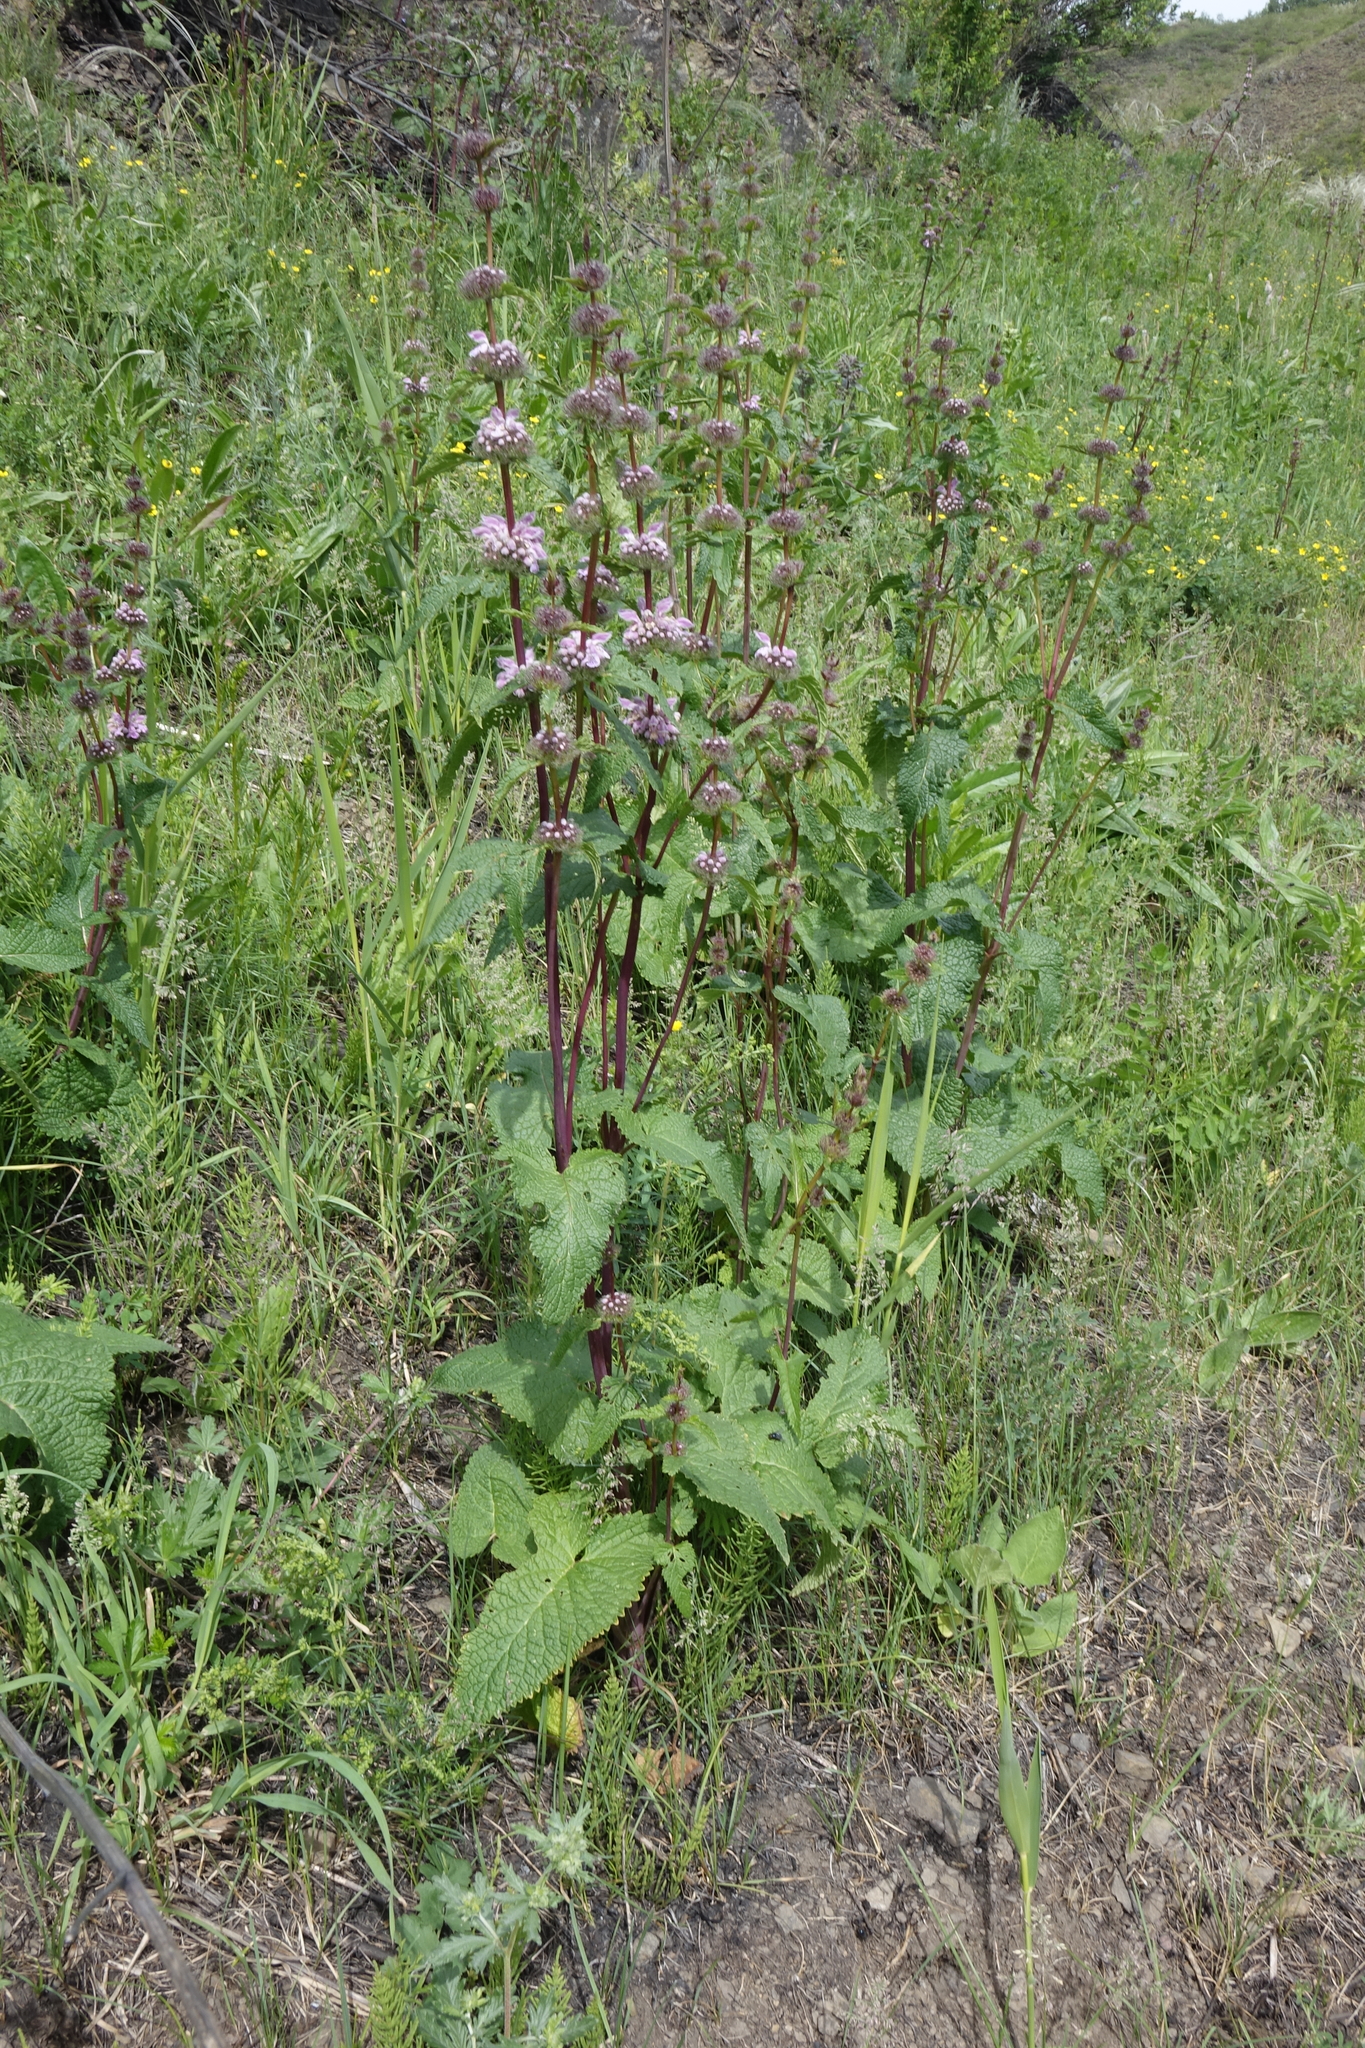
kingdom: Plantae
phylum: Tracheophyta
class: Magnoliopsida
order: Lamiales
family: Lamiaceae
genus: Phlomoides
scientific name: Phlomoides tuberosa
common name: Tuberous jerusalem sage
